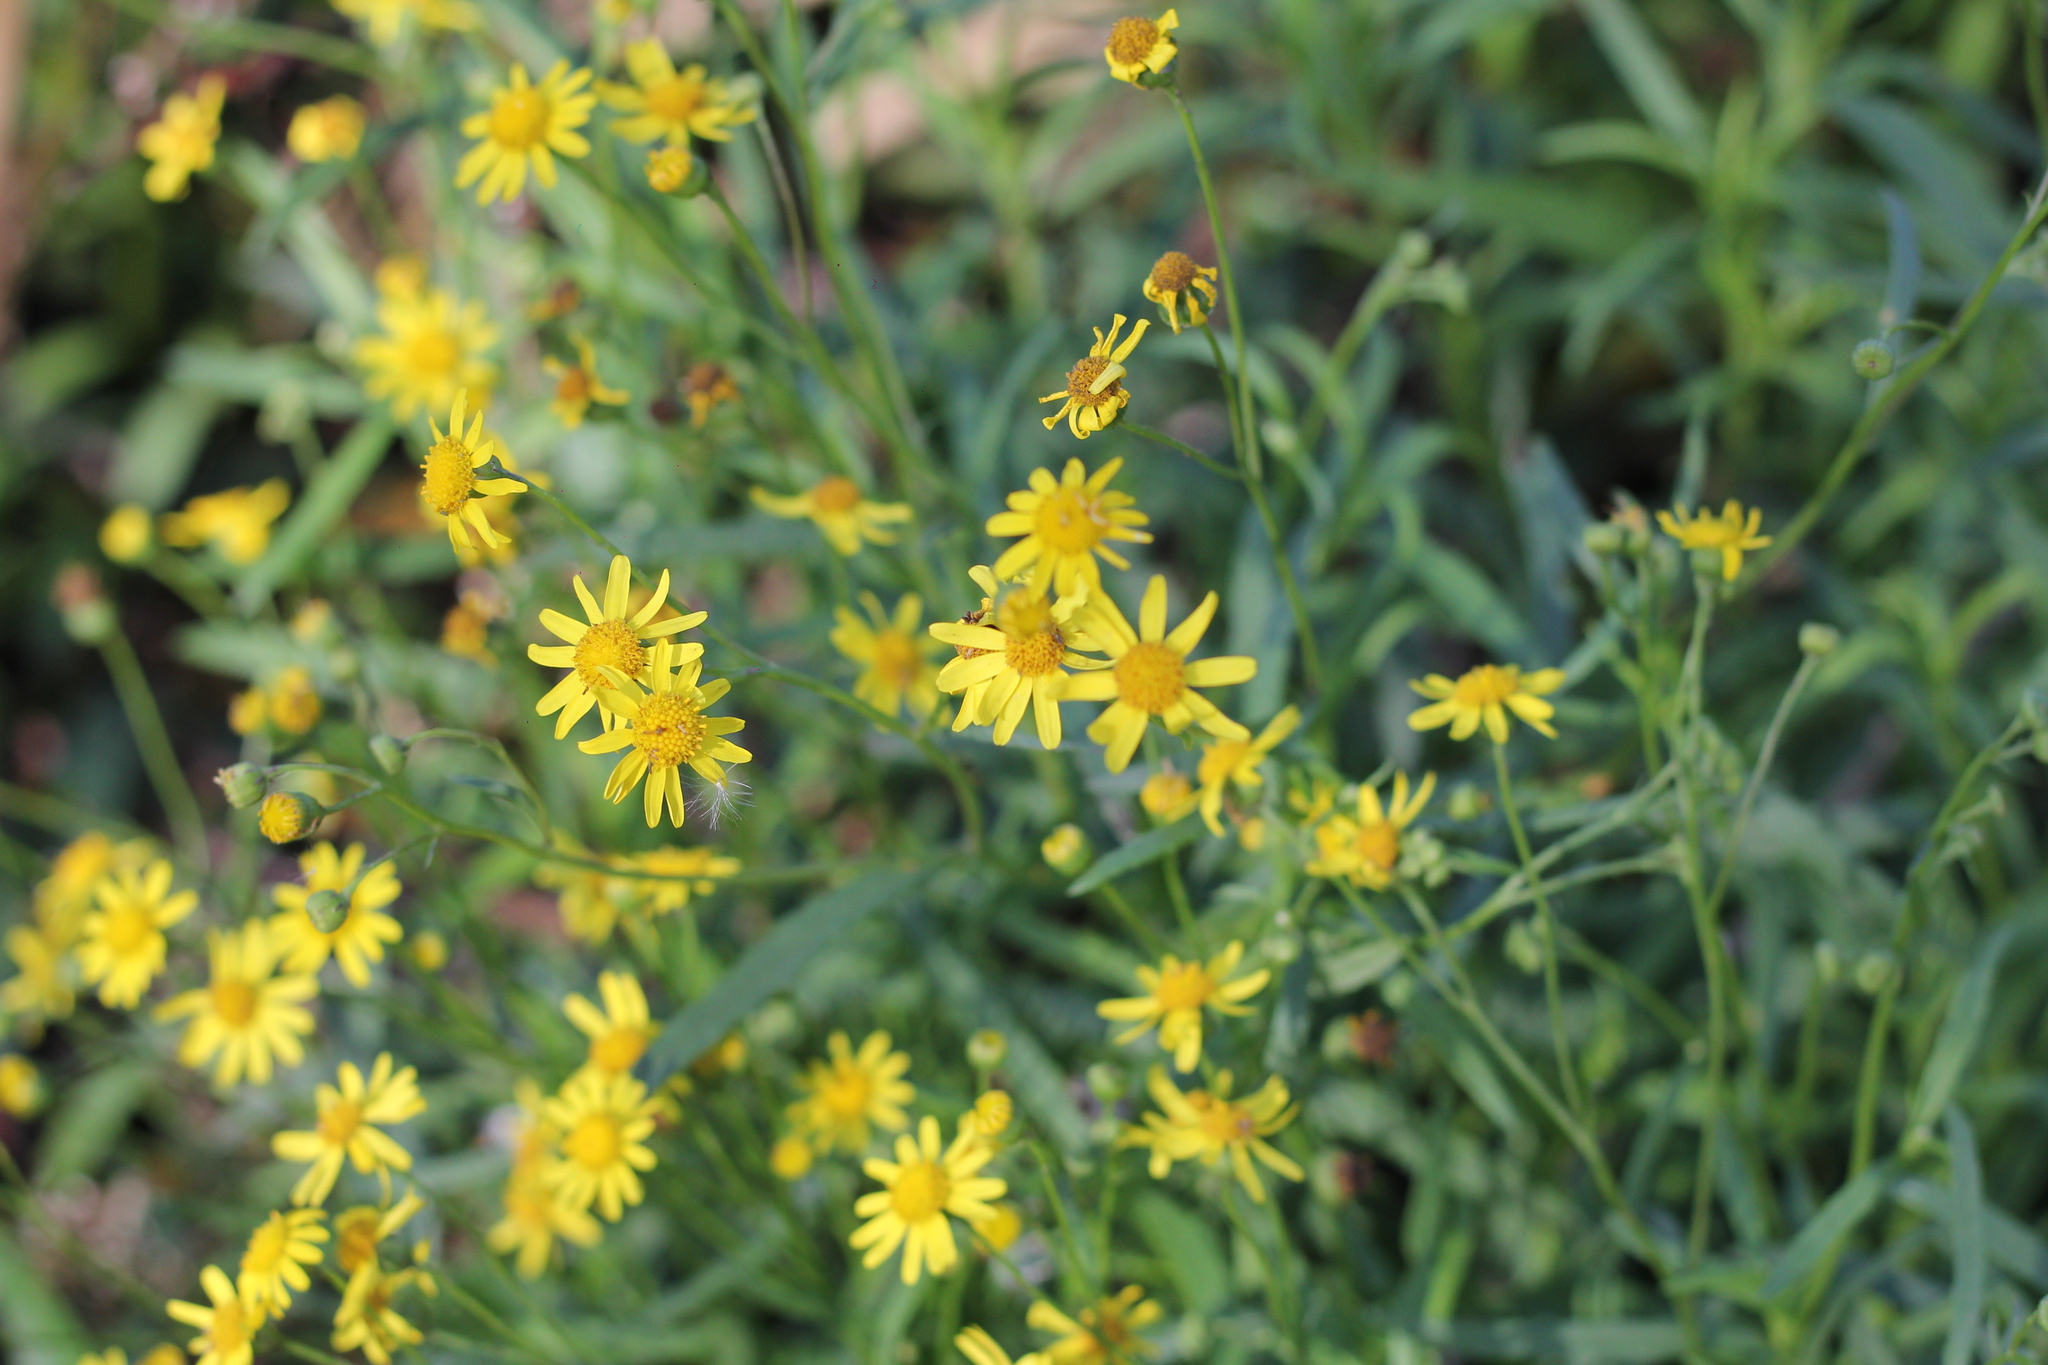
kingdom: Plantae
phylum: Tracheophyta
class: Magnoliopsida
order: Asterales
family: Asteraceae
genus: Senecio
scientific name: Senecio madagascariensis
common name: Madagascar ragwort
